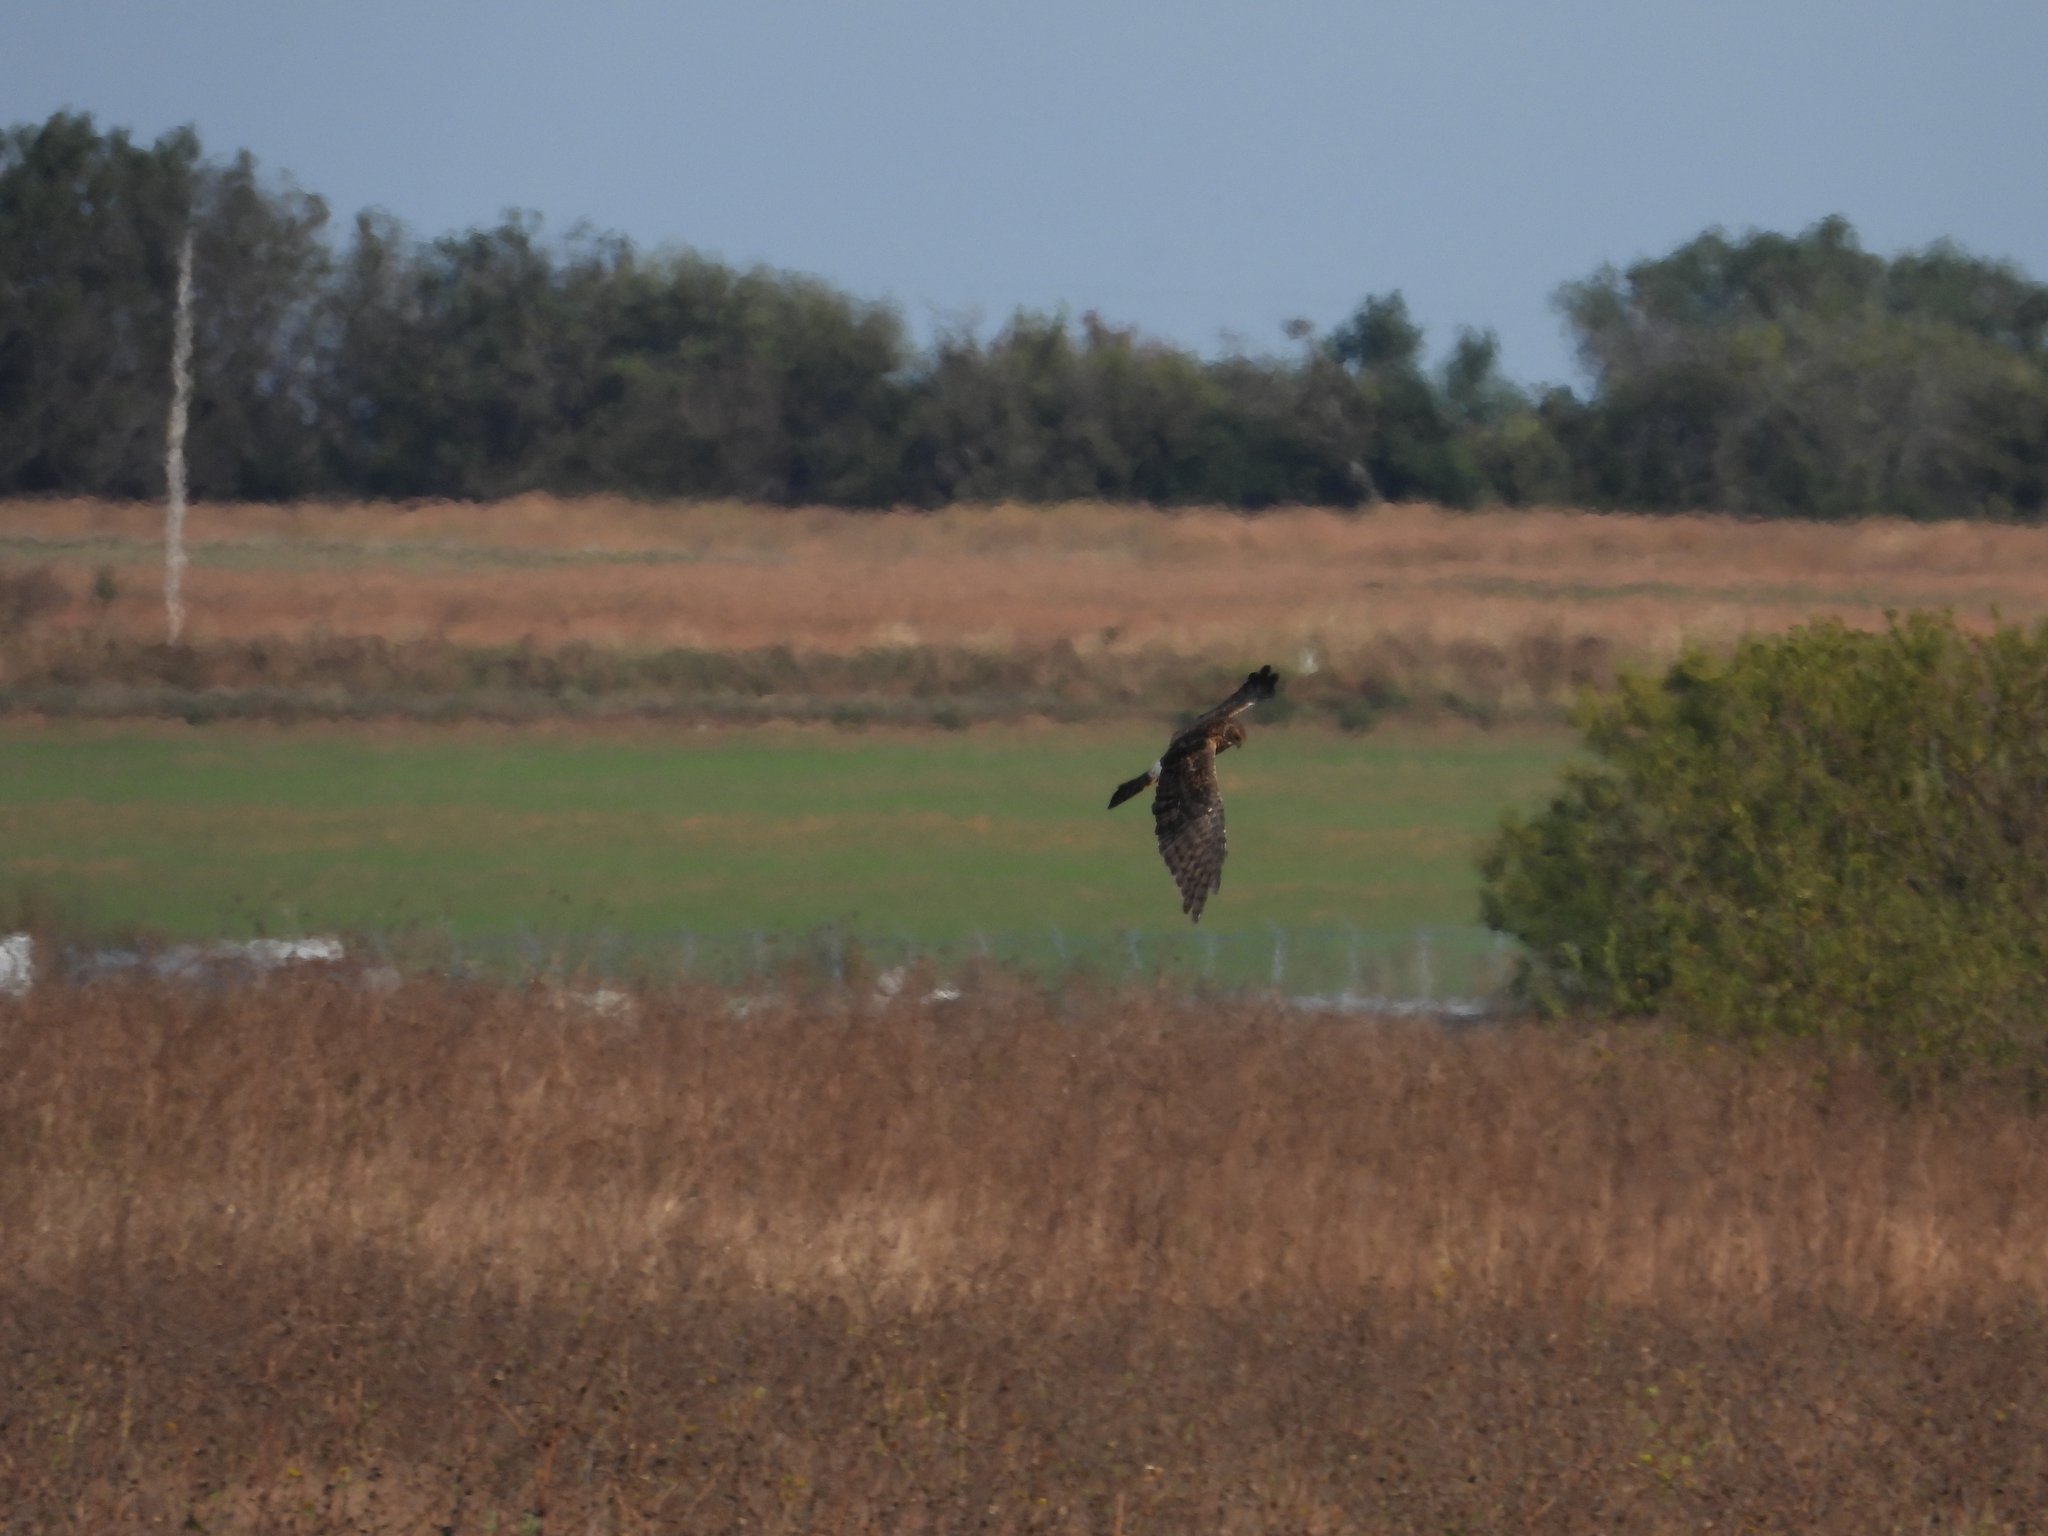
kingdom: Animalia
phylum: Chordata
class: Aves
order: Accipitriformes
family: Accipitridae
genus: Circus
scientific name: Circus cyaneus
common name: Hen harrier
